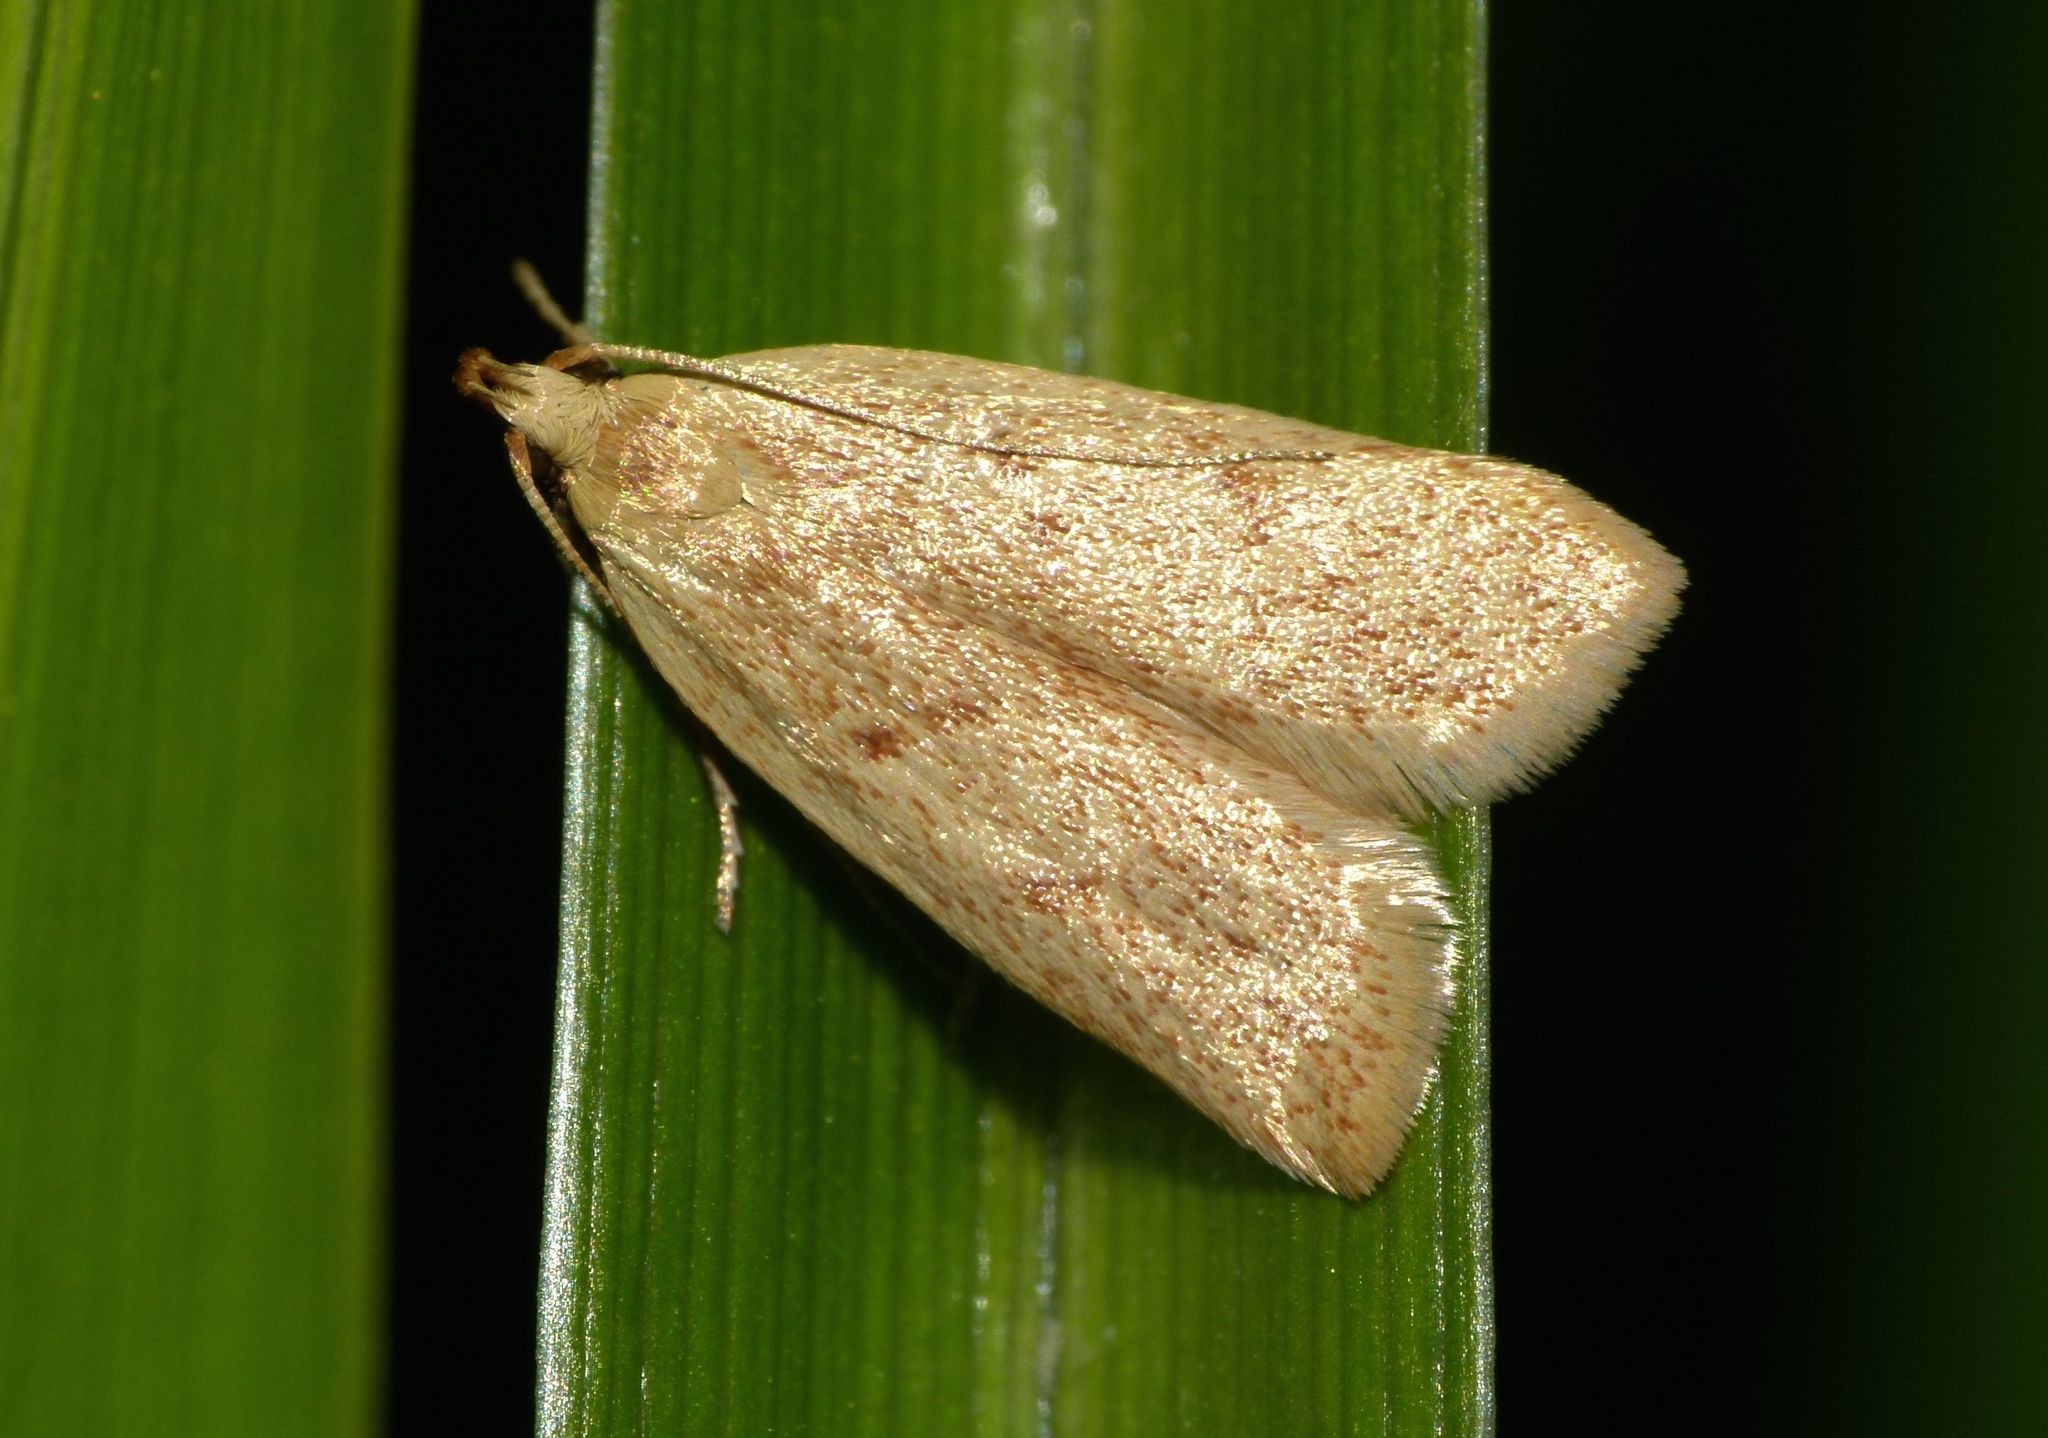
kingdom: Animalia
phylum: Arthropoda
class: Insecta
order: Lepidoptera
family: Oecophoridae
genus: Gymnobathra
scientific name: Gymnobathra sarcoxantha
